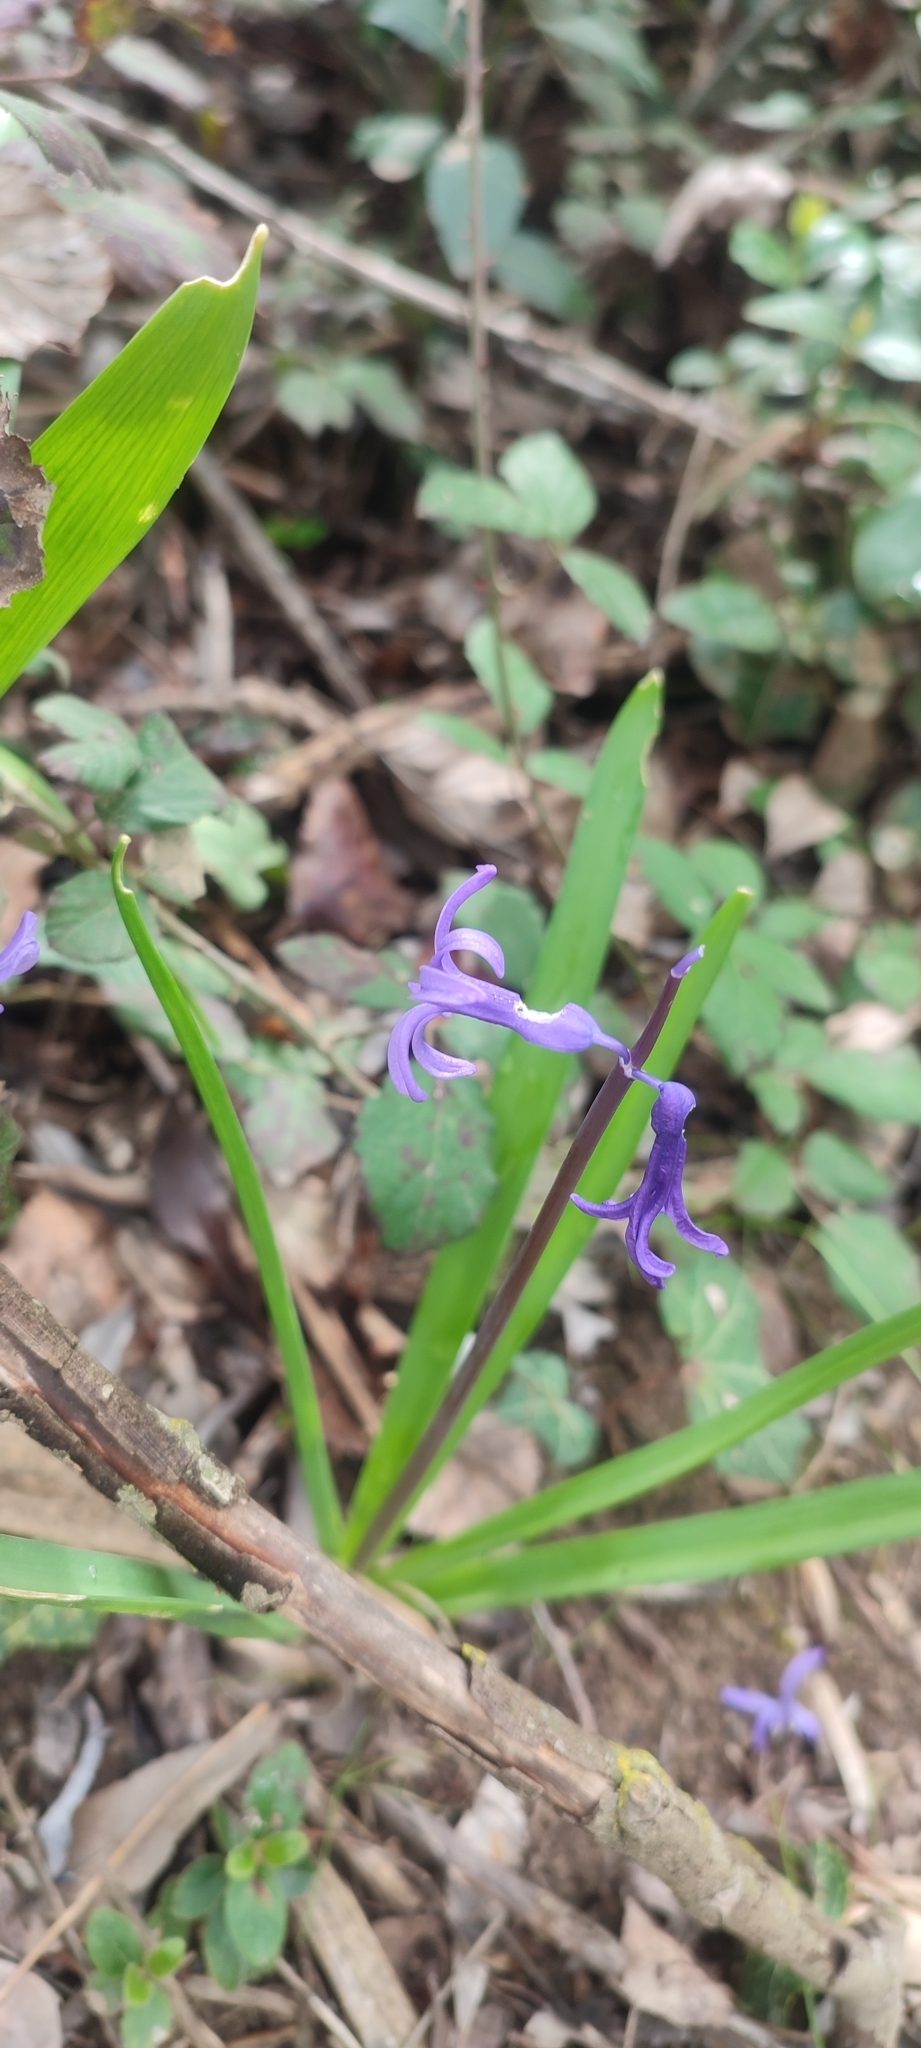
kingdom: Plantae
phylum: Tracheophyta
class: Liliopsida
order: Asparagales
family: Asparagaceae
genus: Hyacinthus
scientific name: Hyacinthus orientalis
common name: Hyacinth
